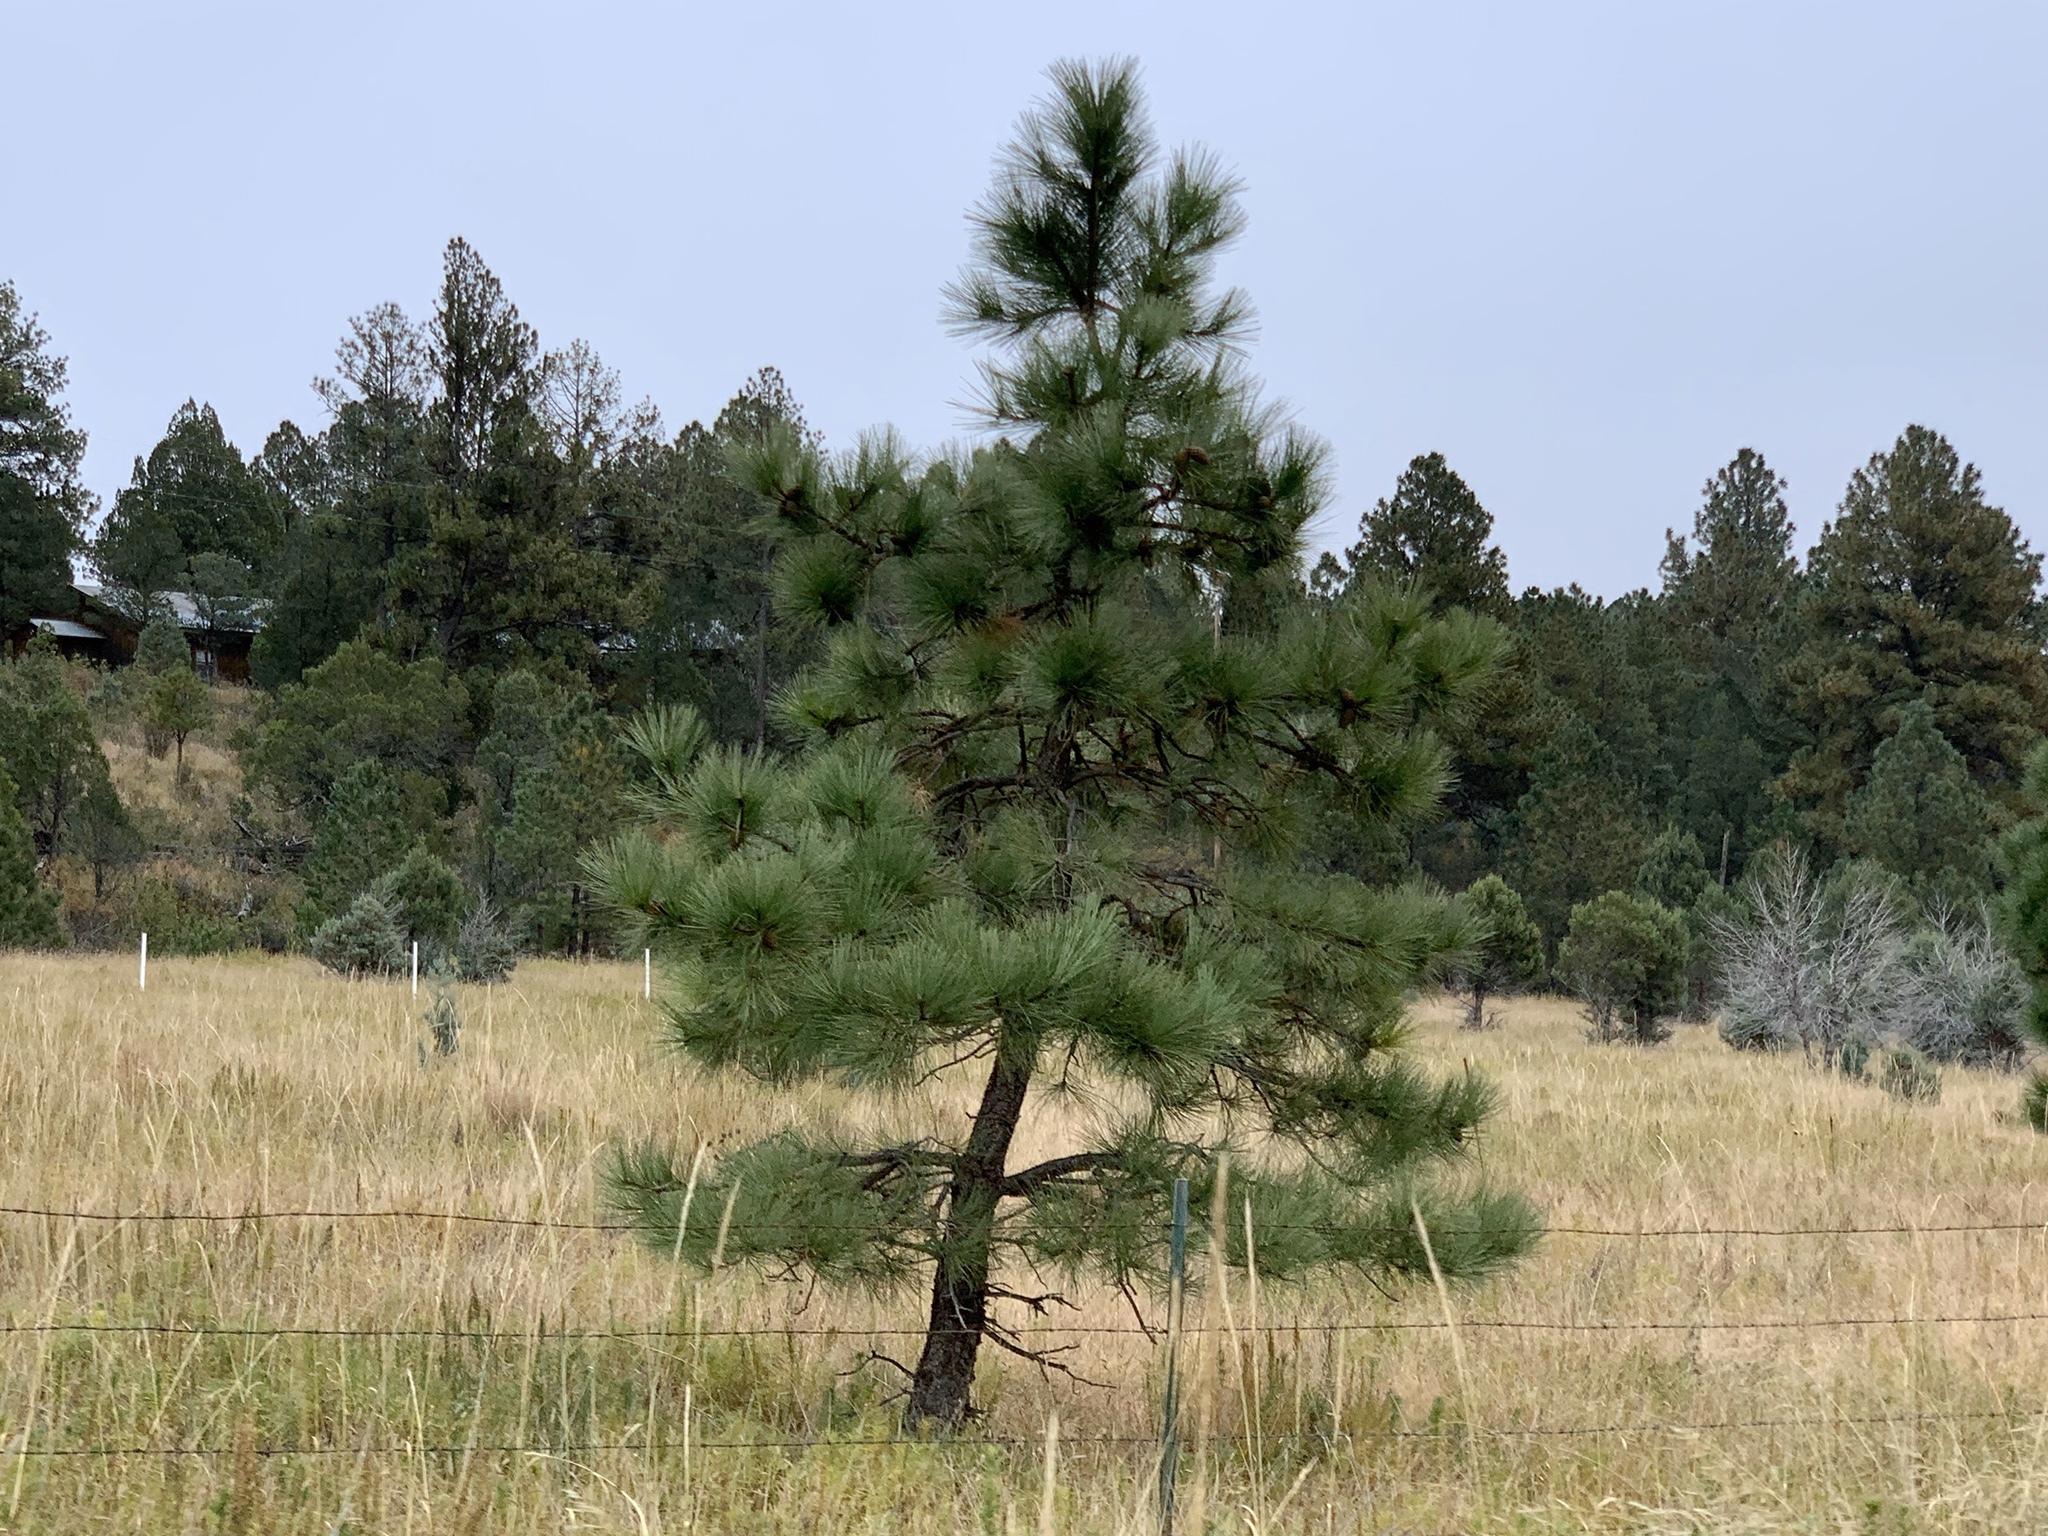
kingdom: Plantae
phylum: Tracheophyta
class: Pinopsida
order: Pinales
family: Pinaceae
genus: Pinus
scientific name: Pinus ponderosa
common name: Western yellow-pine
